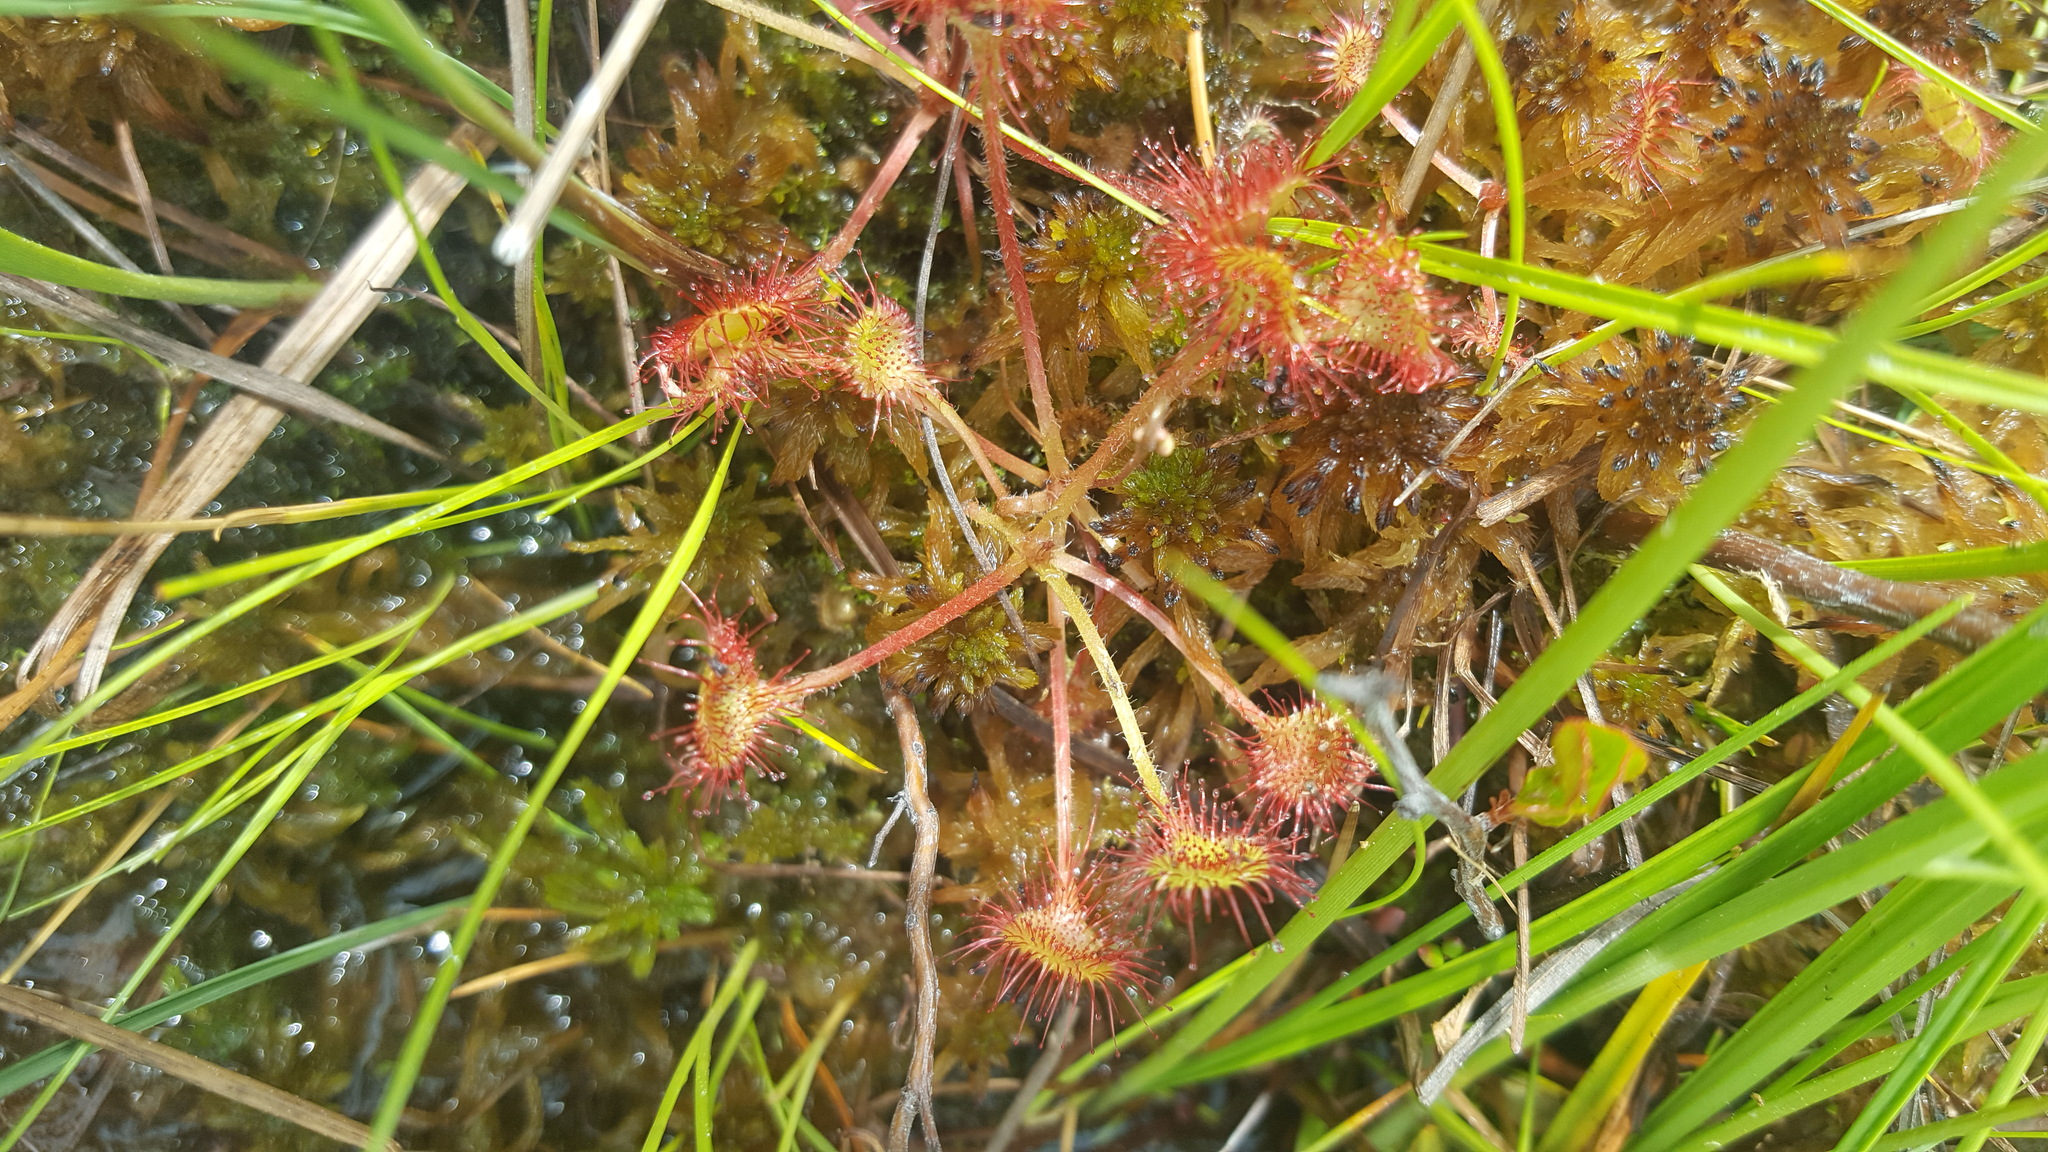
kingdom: Plantae
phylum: Tracheophyta
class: Magnoliopsida
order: Caryophyllales
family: Droseraceae
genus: Drosera
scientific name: Drosera rotundifolia
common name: Round-leaved sundew
